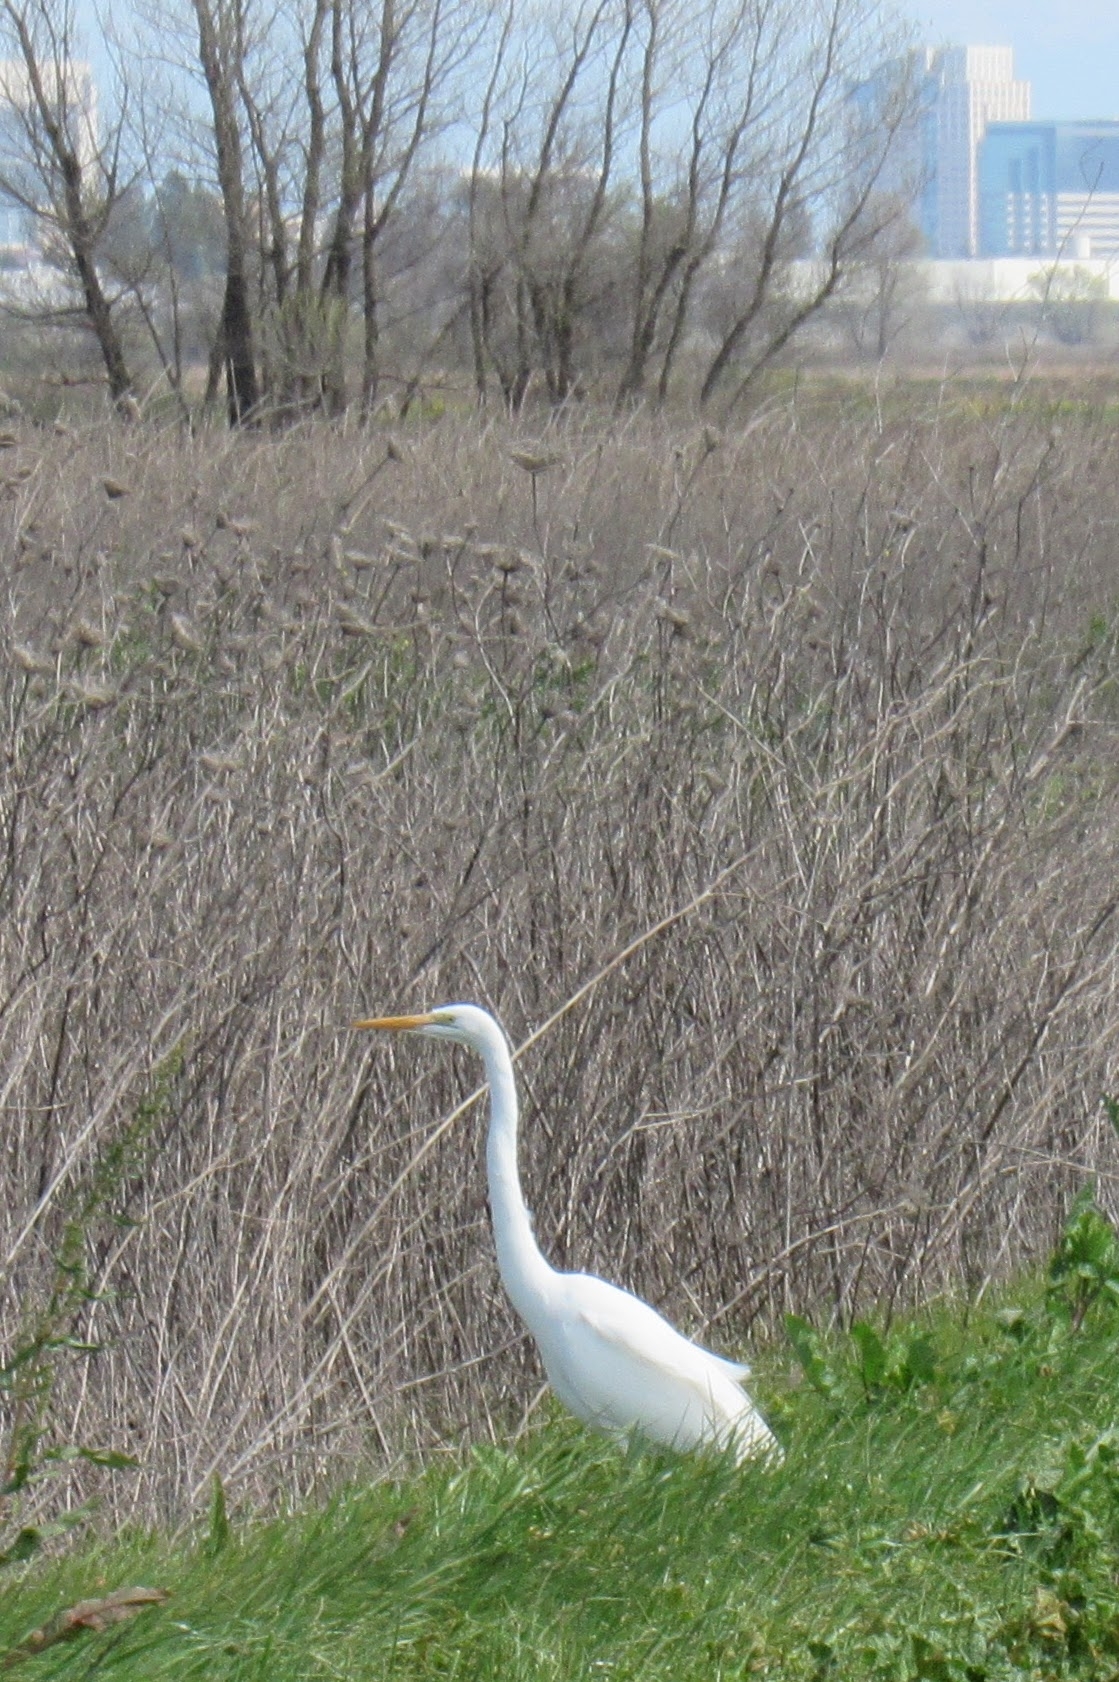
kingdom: Animalia
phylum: Chordata
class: Aves
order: Pelecaniformes
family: Ardeidae
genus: Ardea
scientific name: Ardea alba
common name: Great egret
